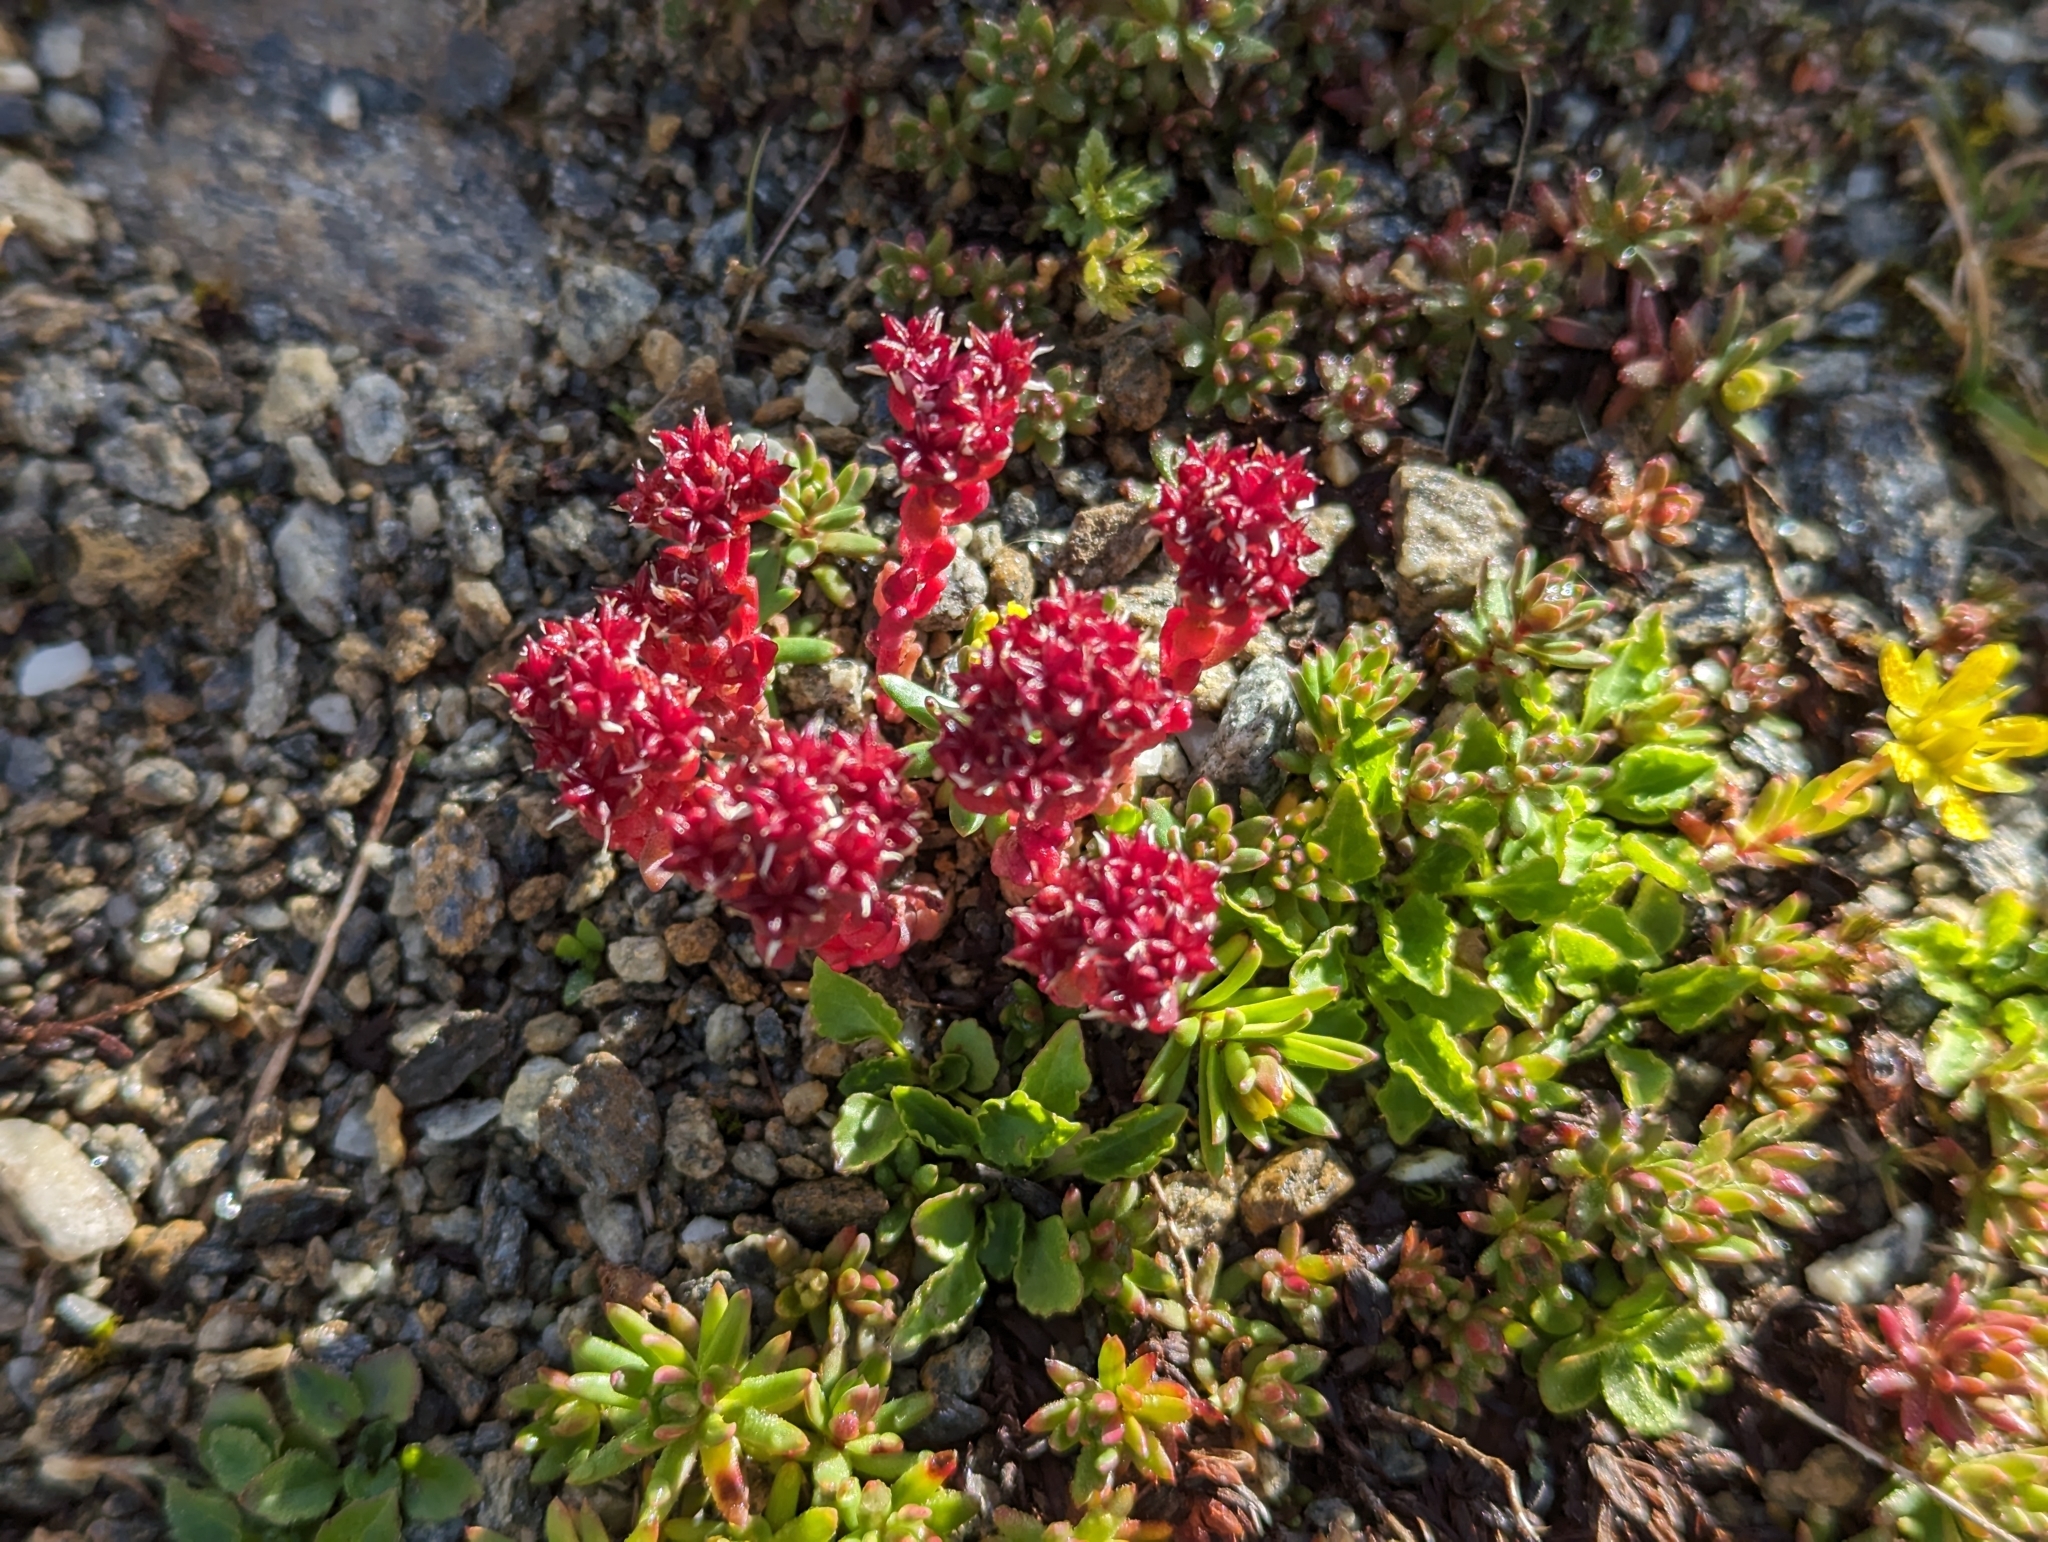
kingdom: Plantae
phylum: Tracheophyta
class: Magnoliopsida
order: Saxifragales
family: Crassulaceae
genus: Sedum
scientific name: Sedum atratum
